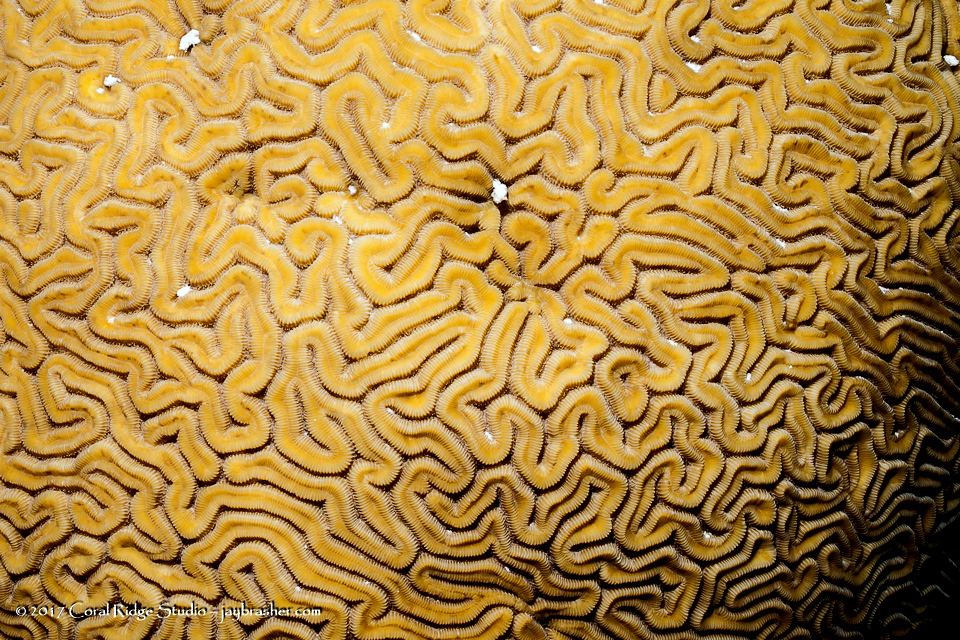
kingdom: Animalia
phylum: Cnidaria
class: Anthozoa
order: Scleractinia
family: Faviidae
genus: Diploria
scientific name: Diploria labyrinthiformis
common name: Grooved brain coral
